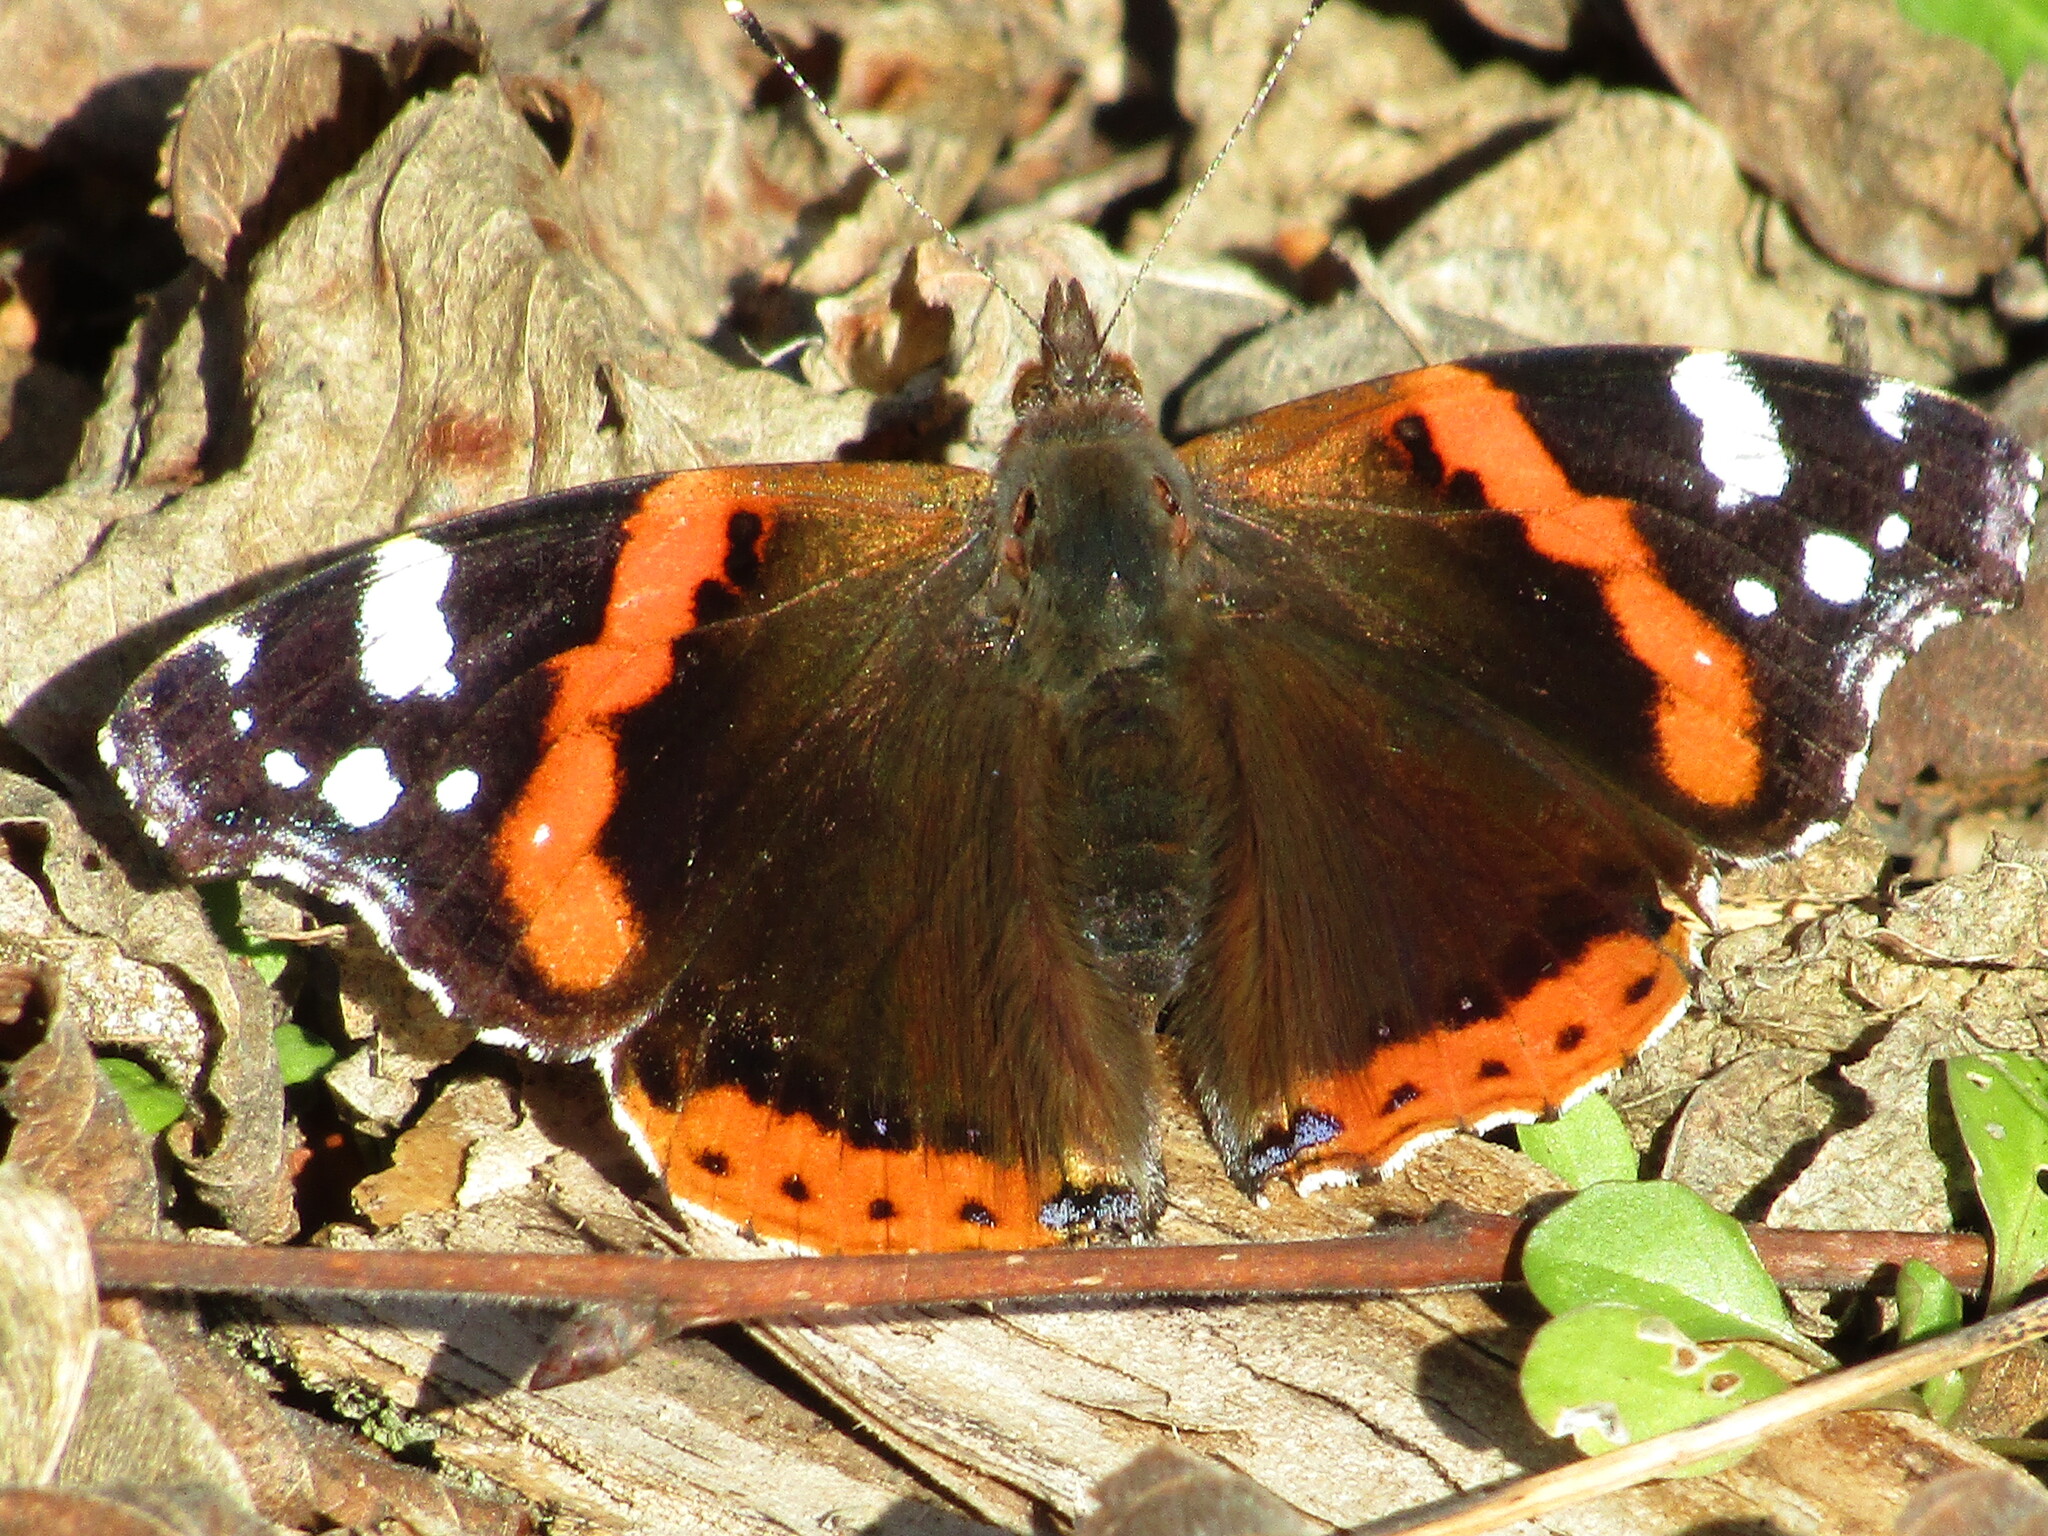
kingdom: Animalia
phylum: Arthropoda
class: Insecta
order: Lepidoptera
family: Nymphalidae
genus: Vanessa
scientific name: Vanessa atalanta
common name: Red admiral
